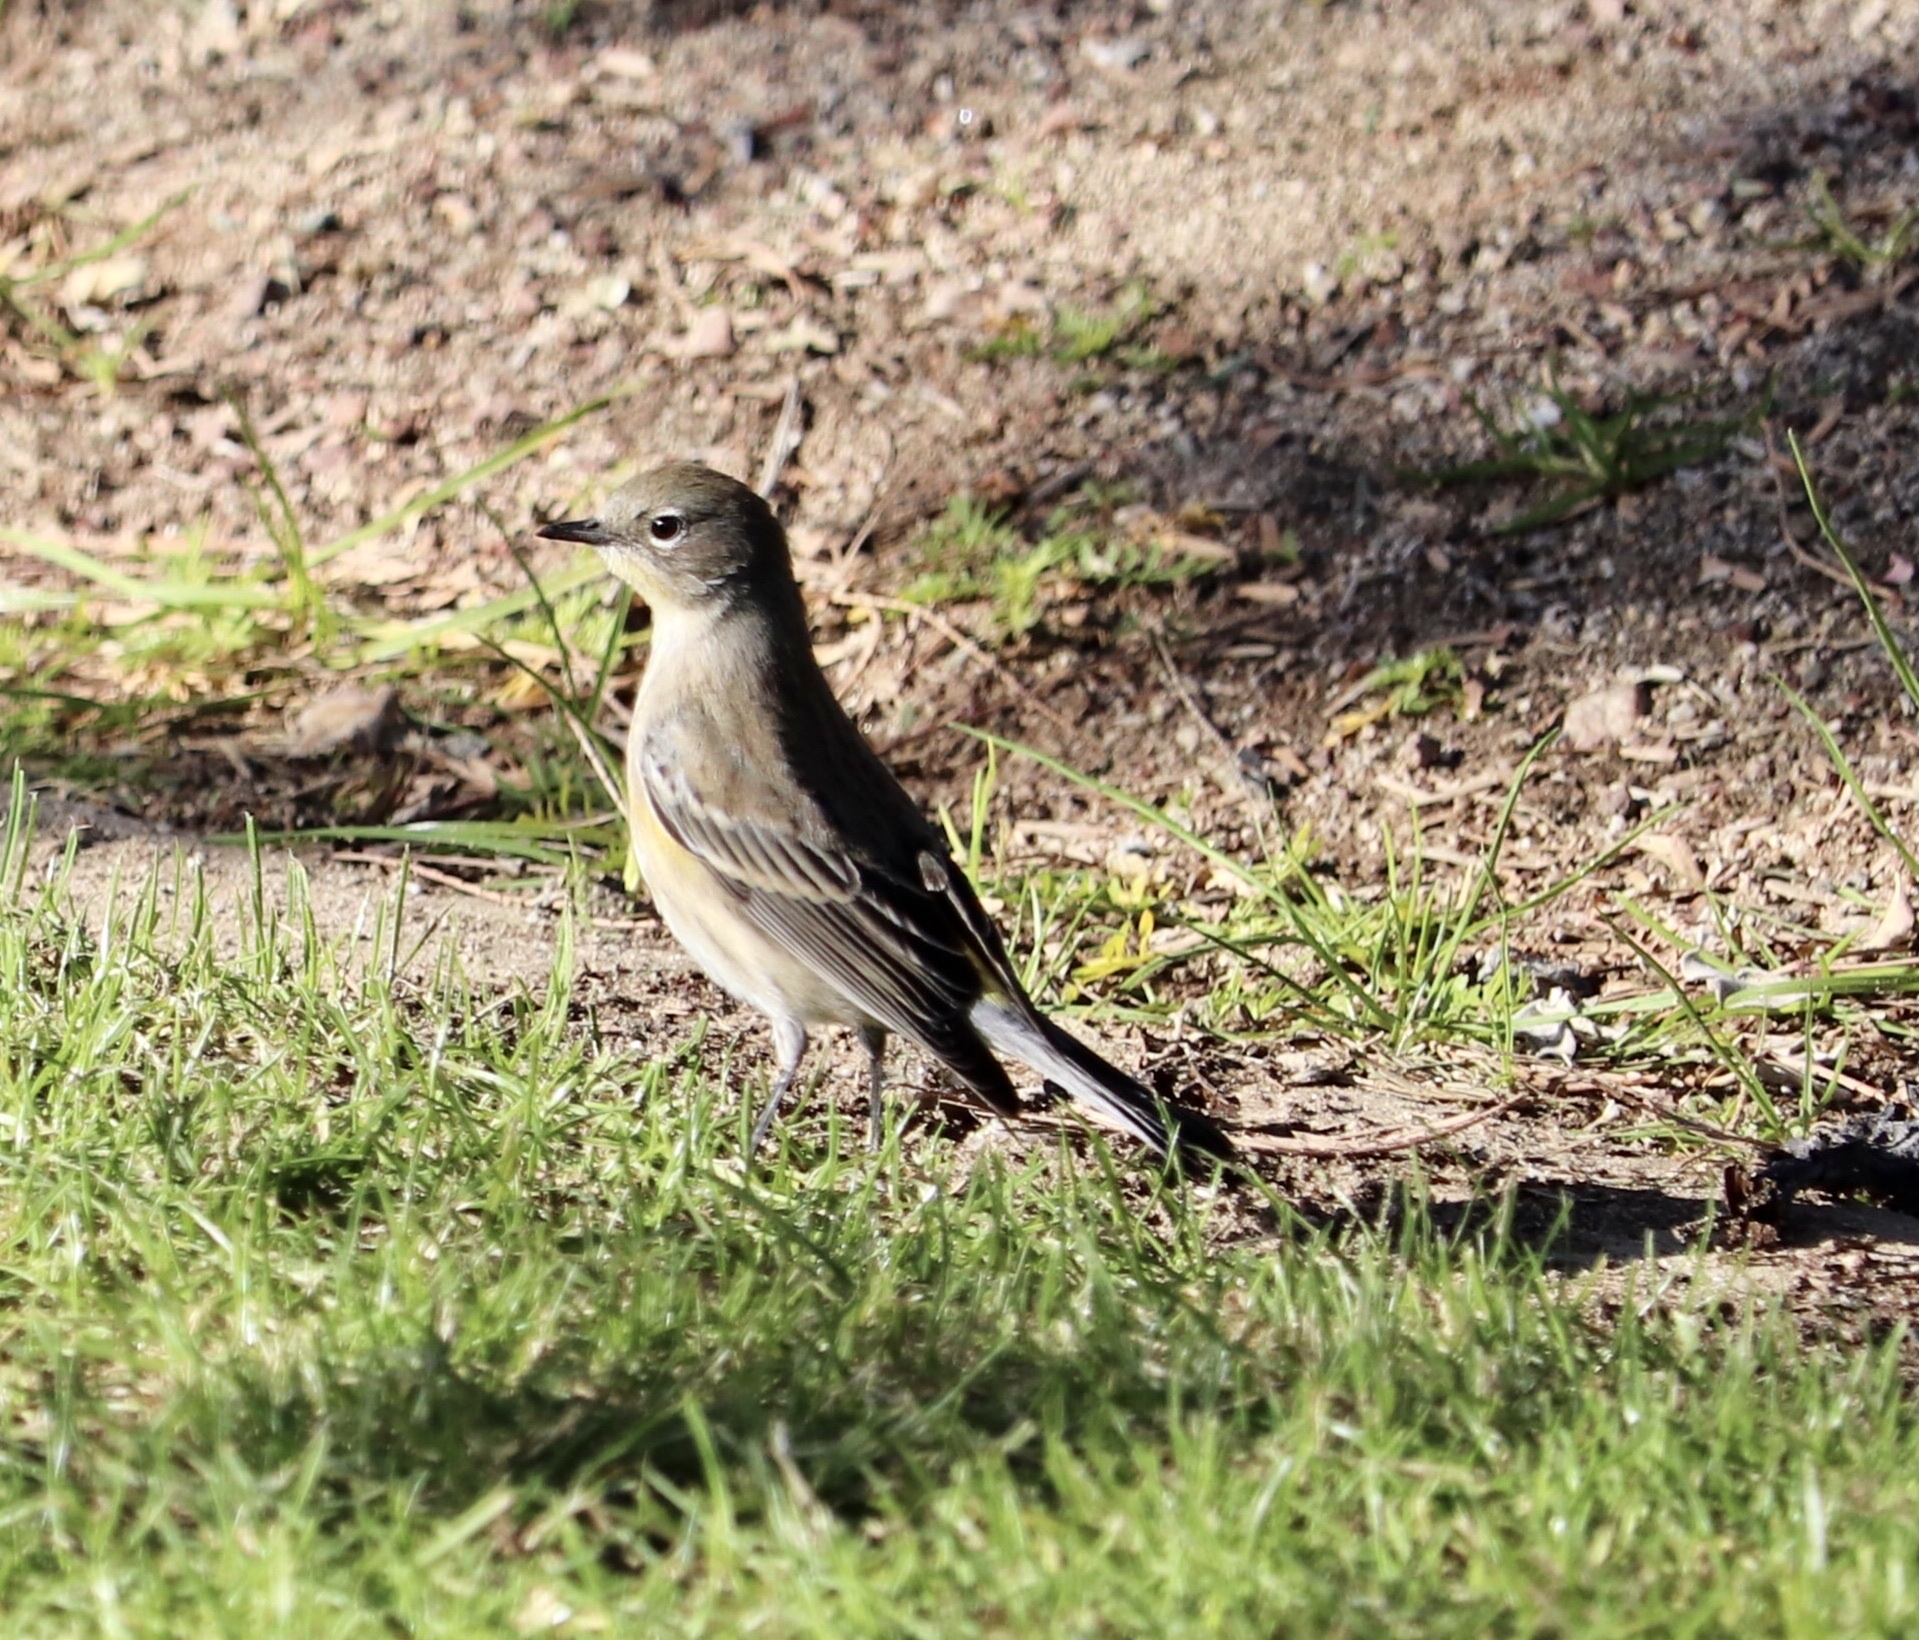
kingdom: Animalia
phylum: Chordata
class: Aves
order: Passeriformes
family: Parulidae
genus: Setophaga
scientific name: Setophaga coronata
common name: Myrtle warbler
